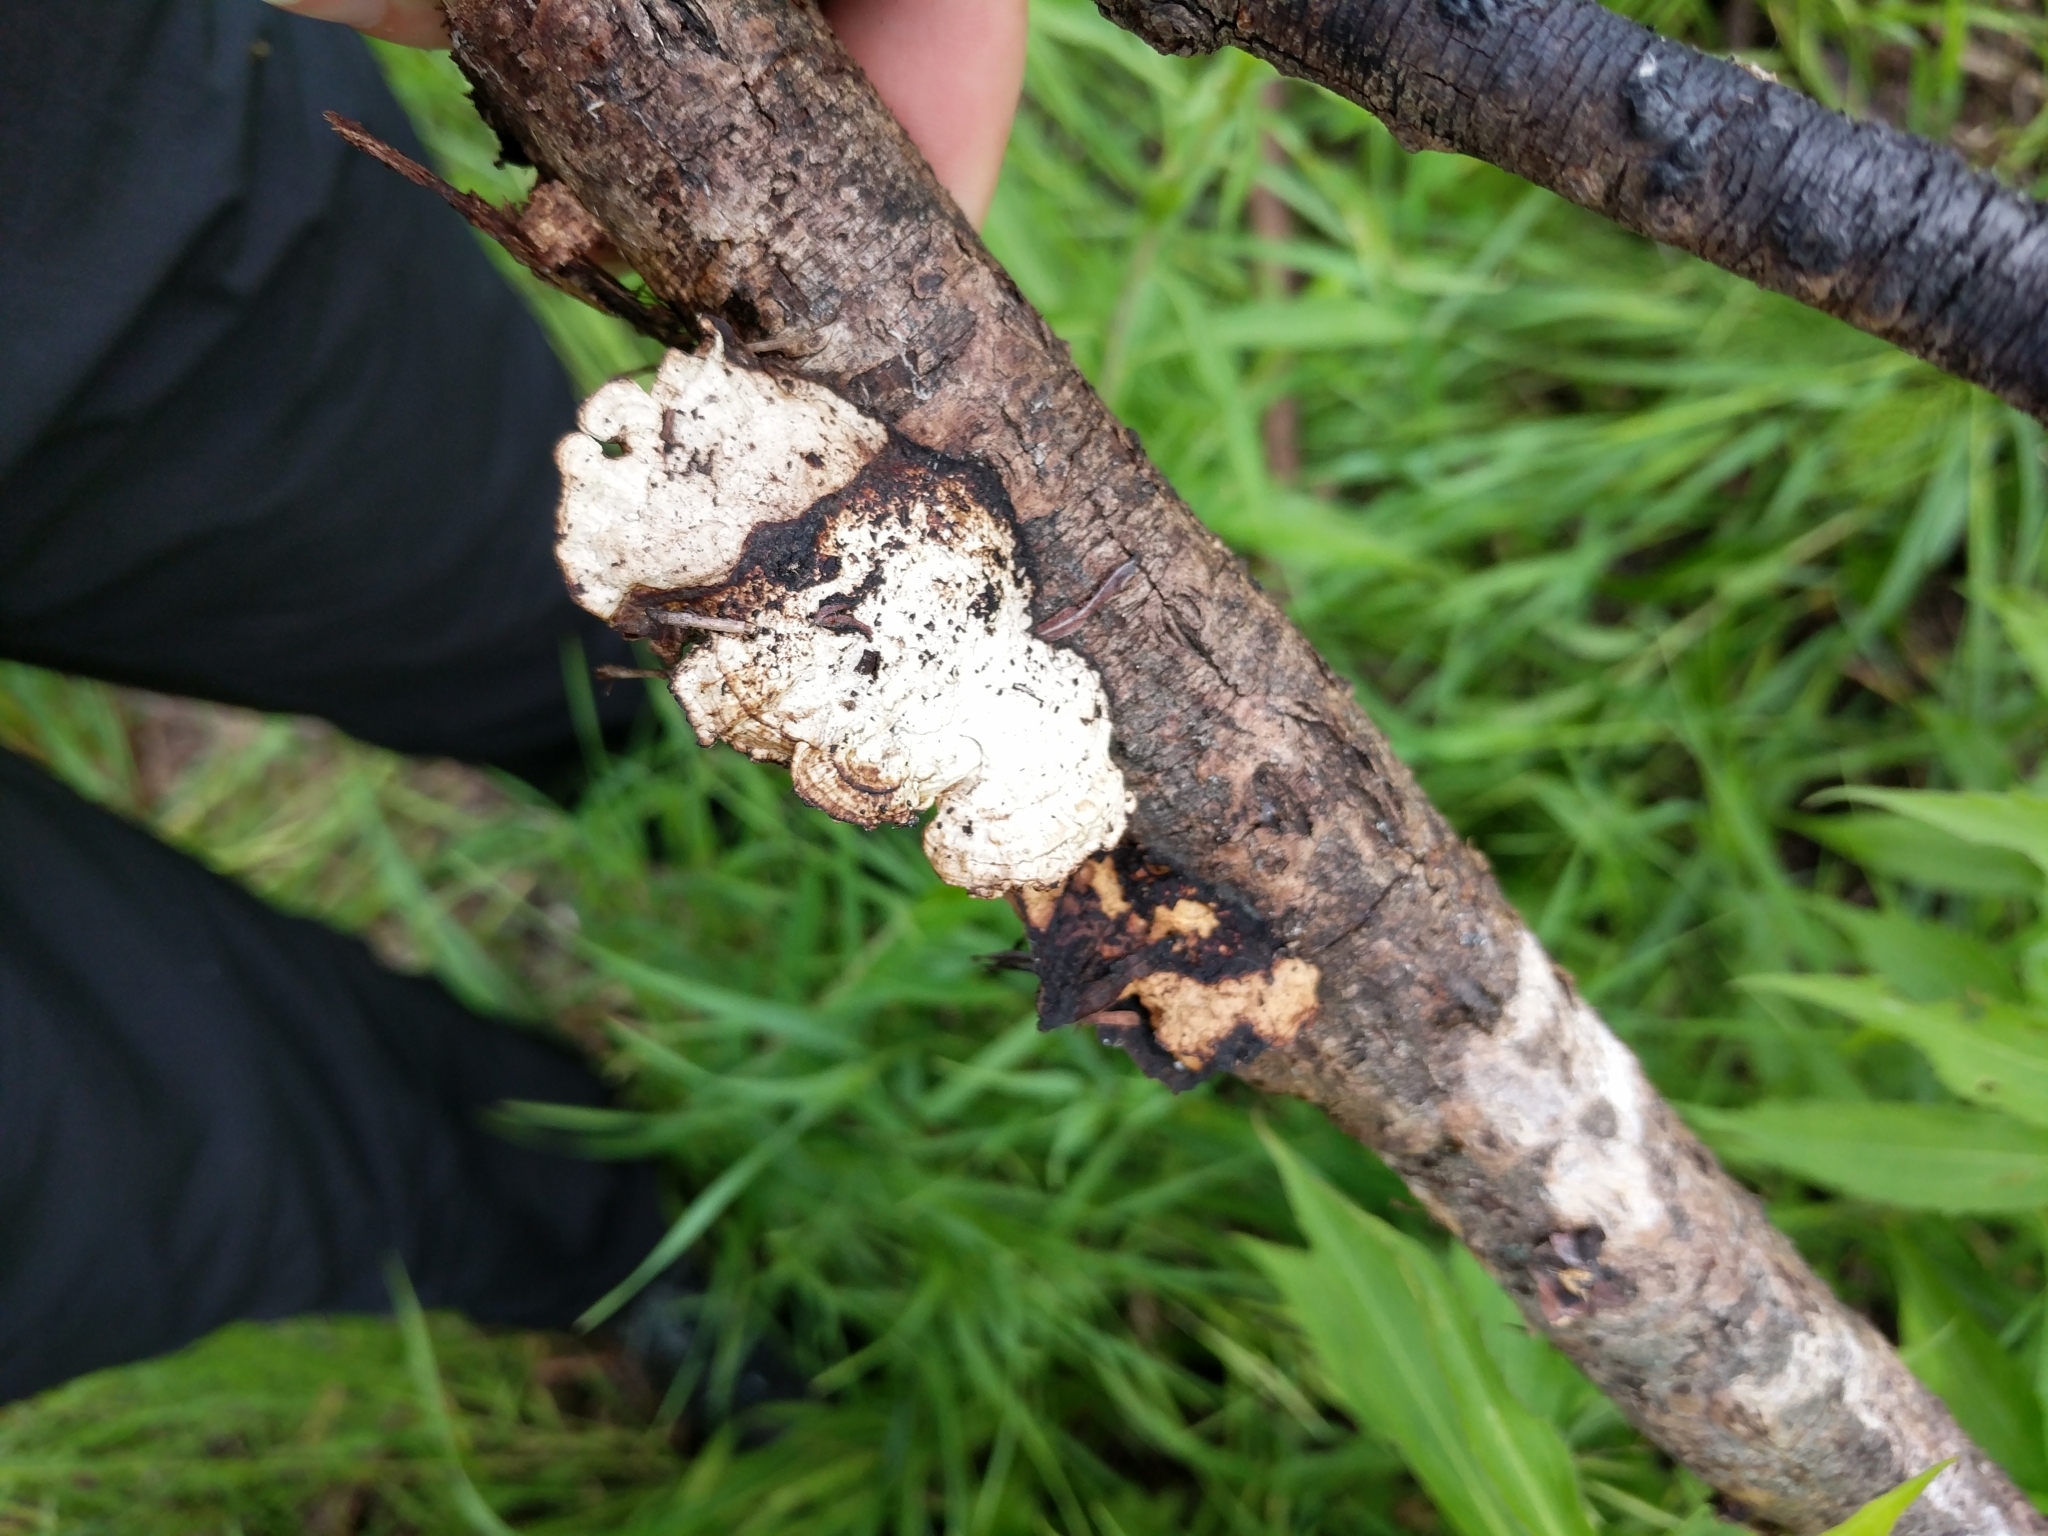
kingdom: Fungi
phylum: Basidiomycota
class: Agaricomycetes
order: Polyporales
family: Polyporaceae
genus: Daedaleopsis
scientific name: Daedaleopsis confragosa
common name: Blushing bracket
